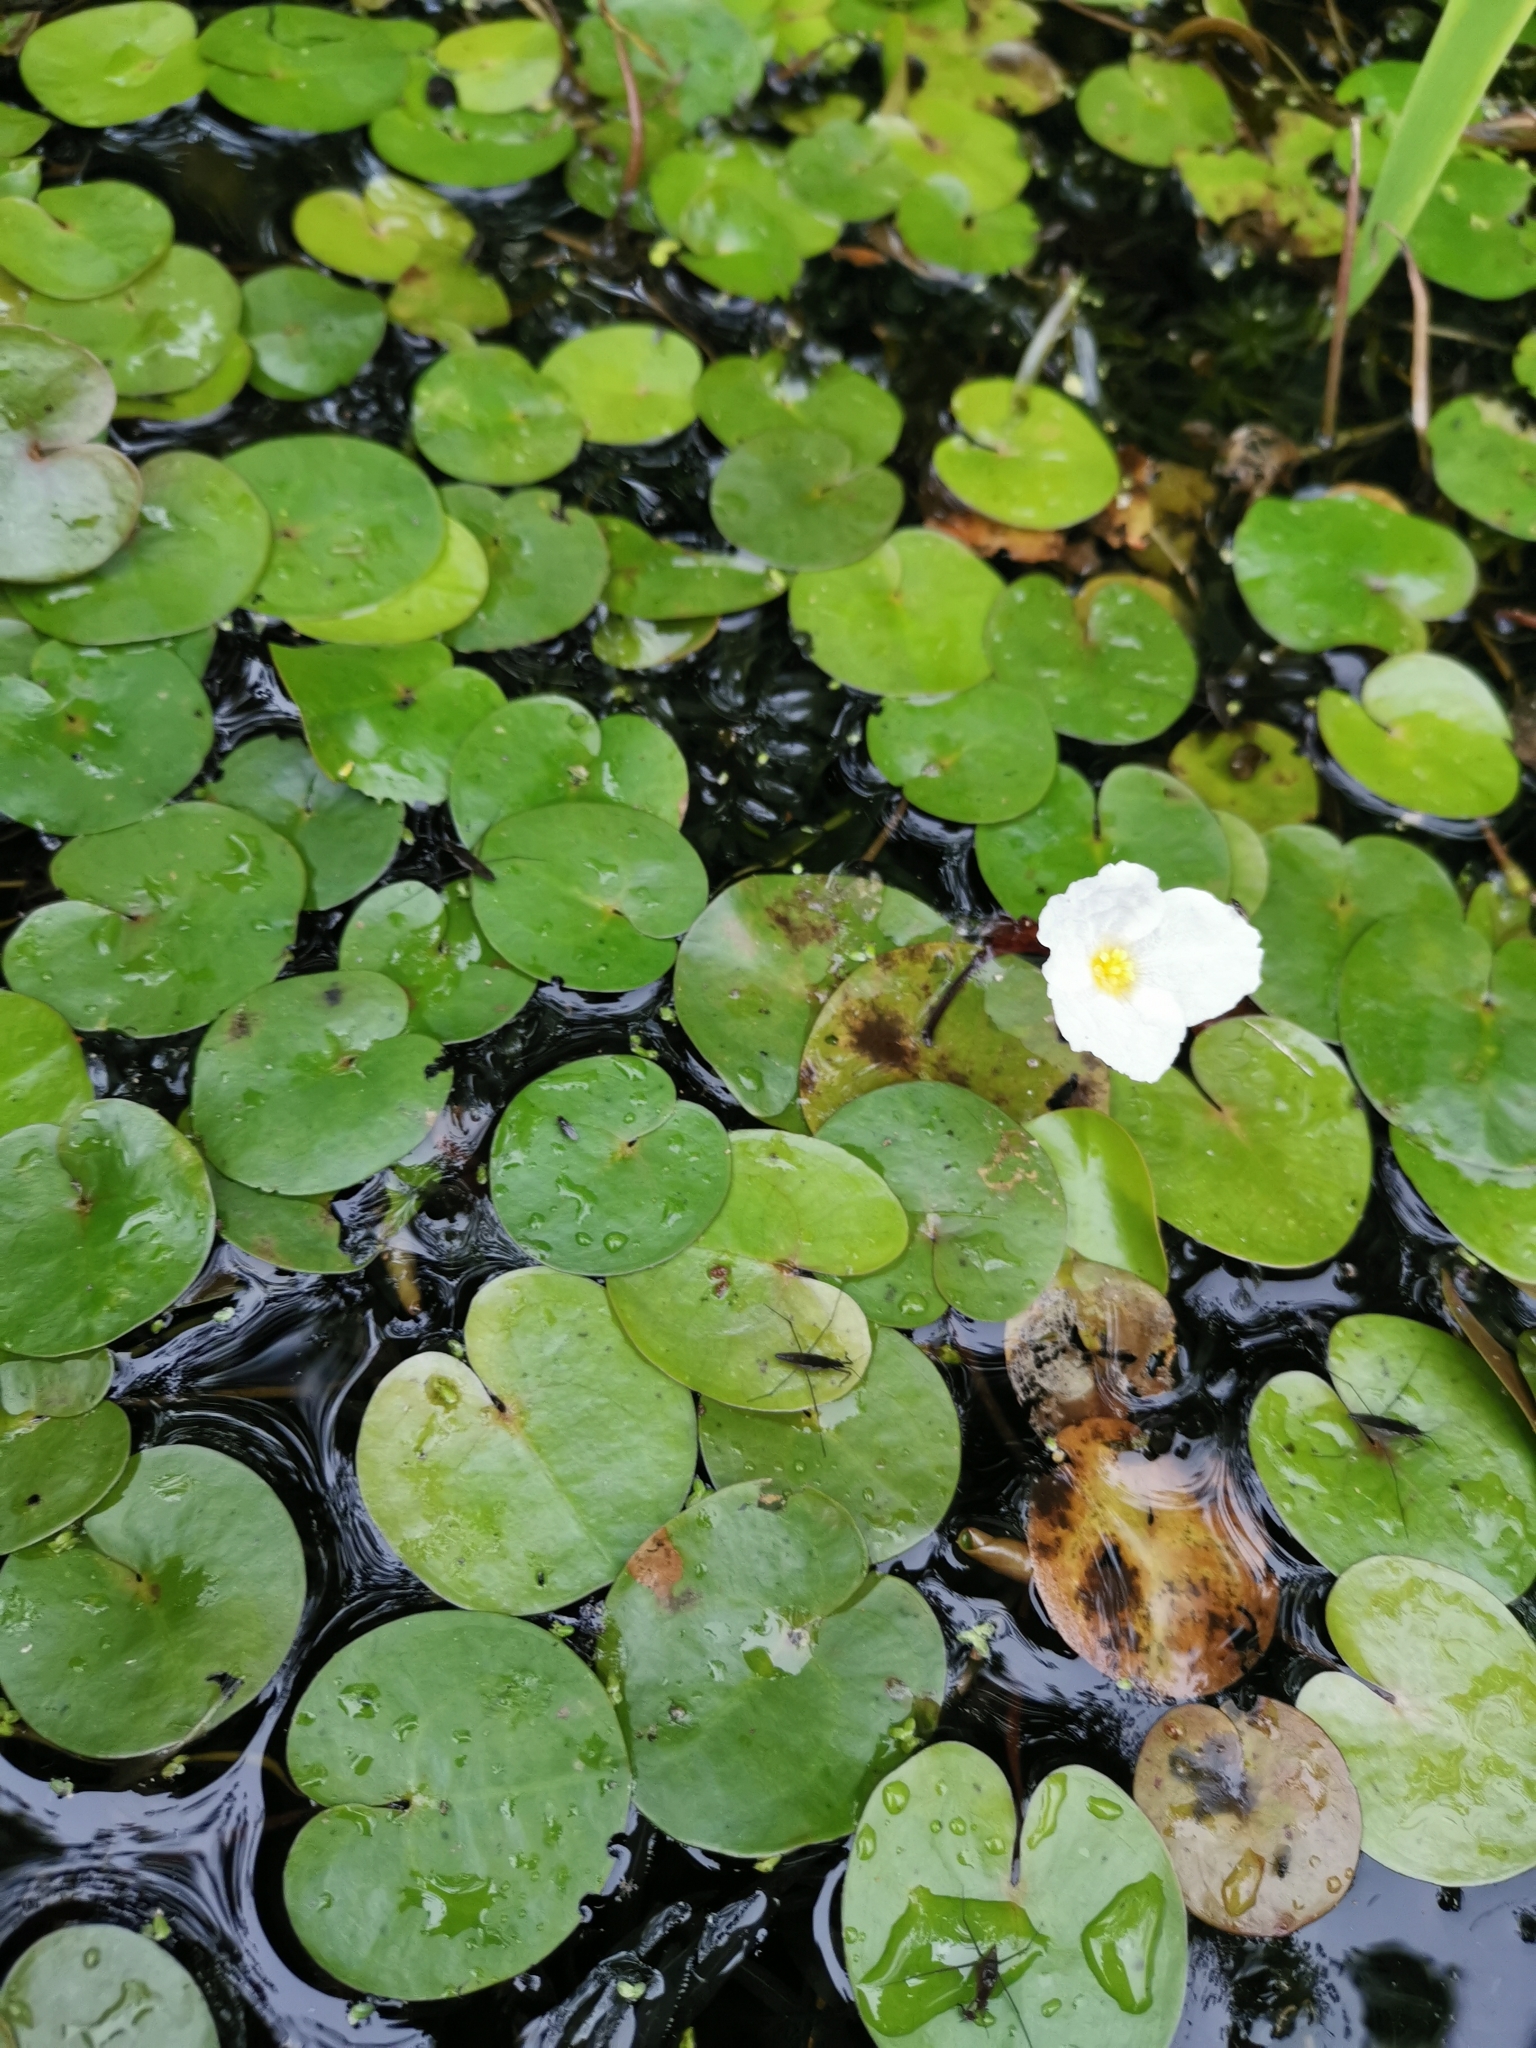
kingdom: Plantae
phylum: Tracheophyta
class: Liliopsida
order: Alismatales
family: Hydrocharitaceae
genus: Hydrocharis
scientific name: Hydrocharis morsus-ranae
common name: Frogbit
